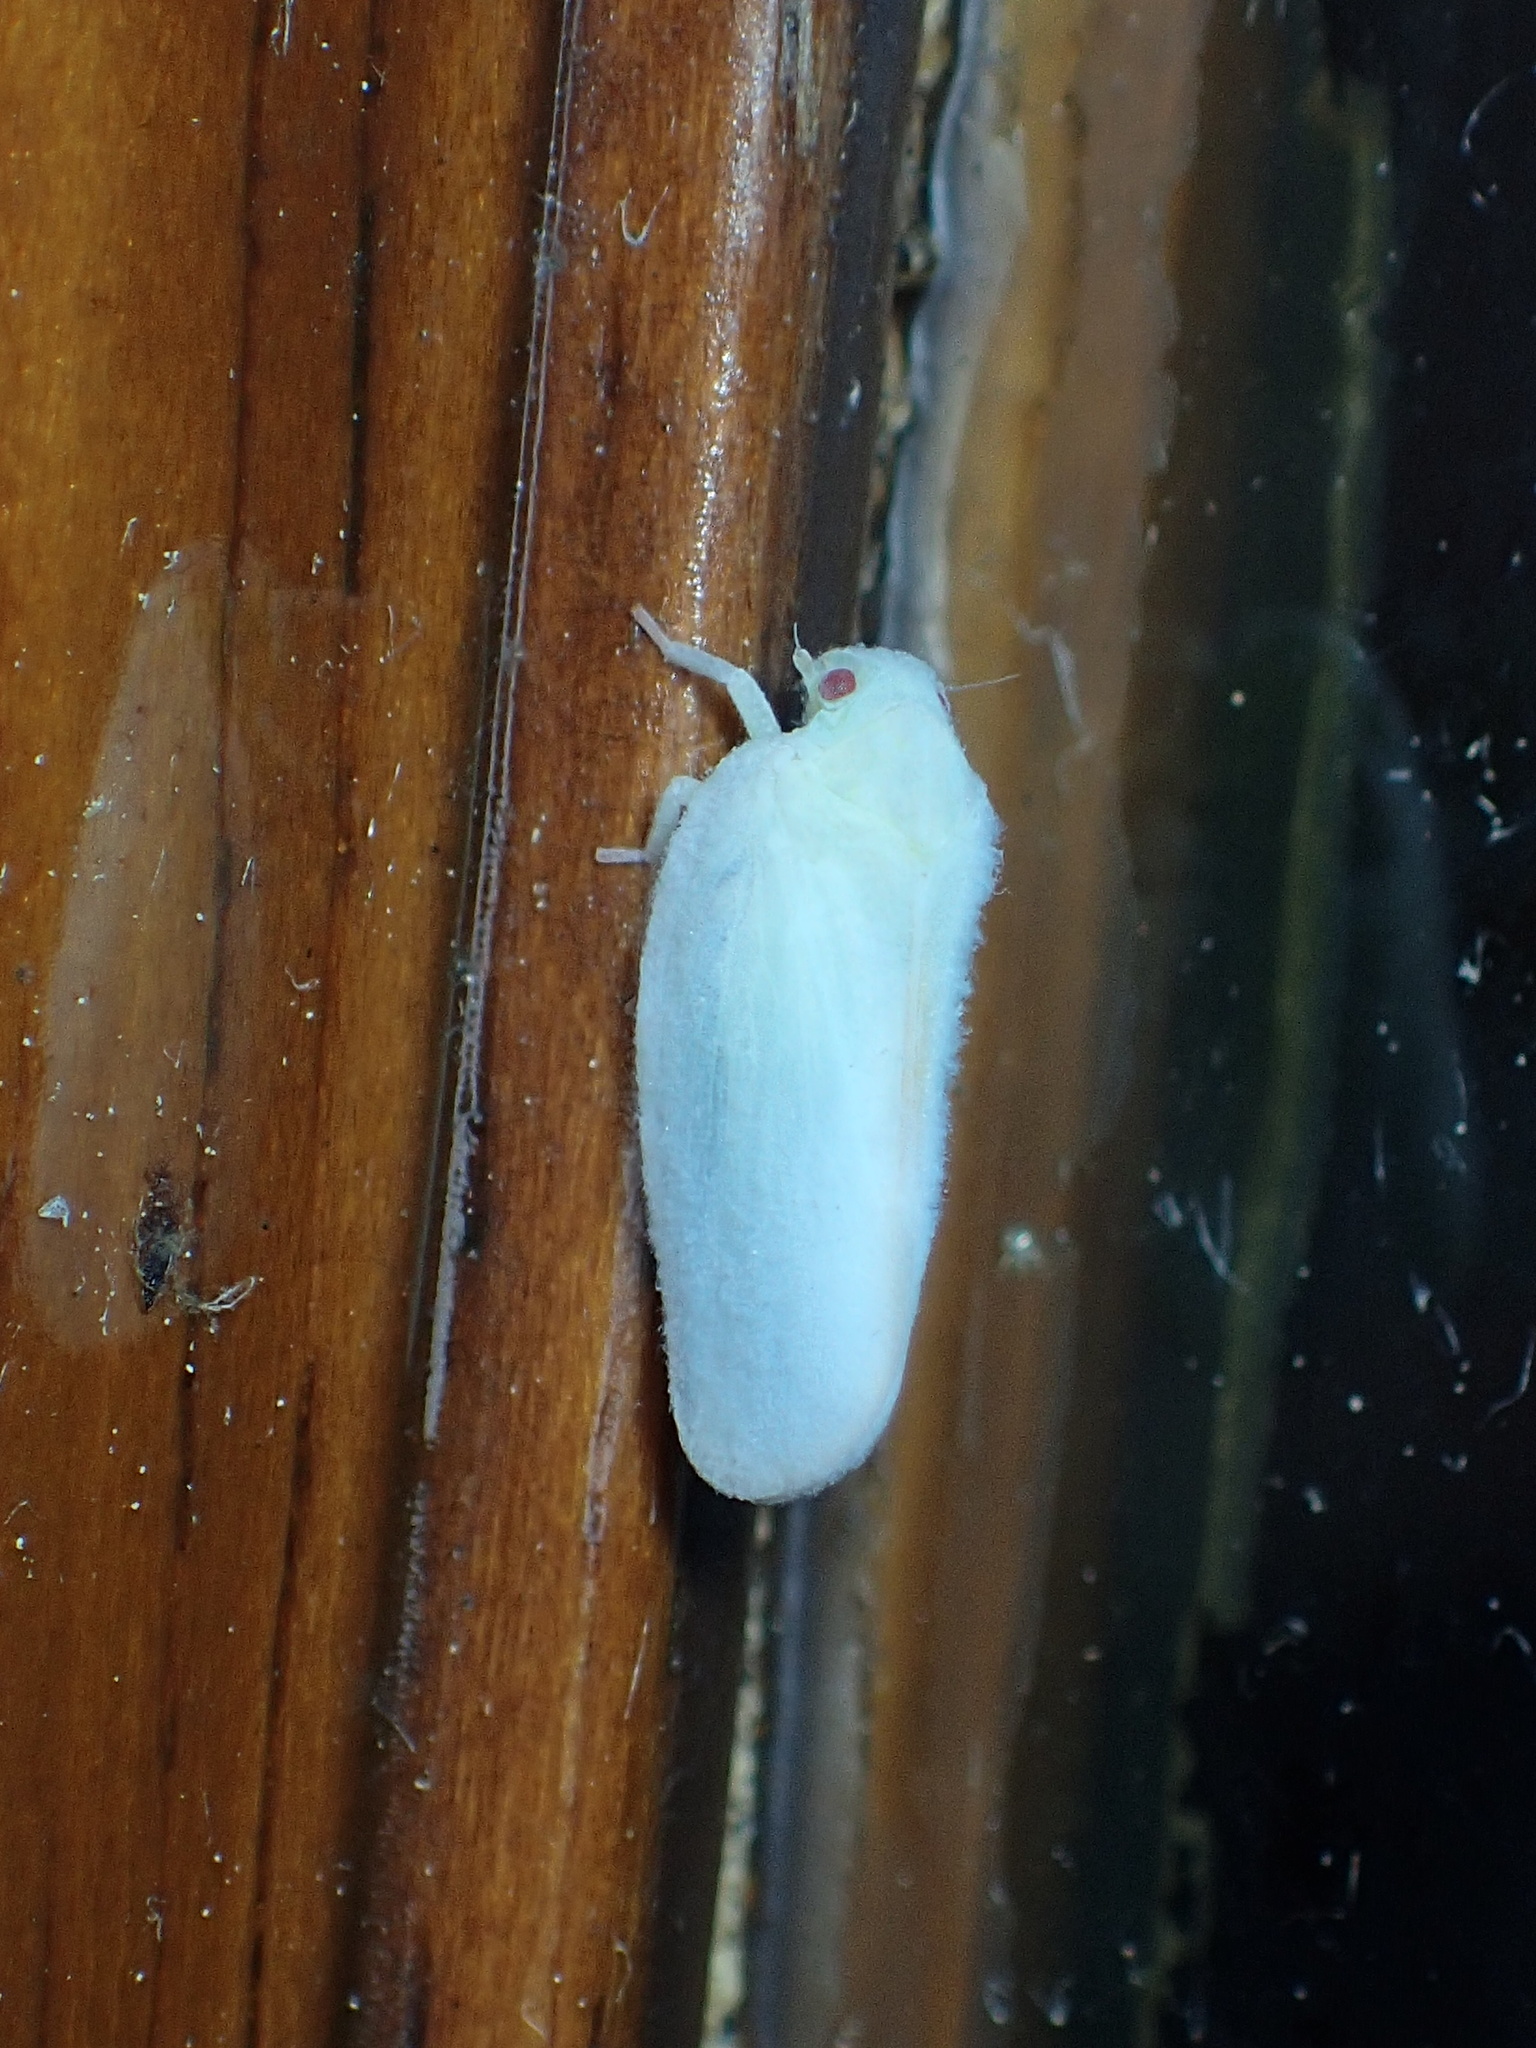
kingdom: Animalia
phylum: Arthropoda
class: Insecta
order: Hemiptera
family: Flatidae
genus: Ormenoides
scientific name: Ormenoides venusta
